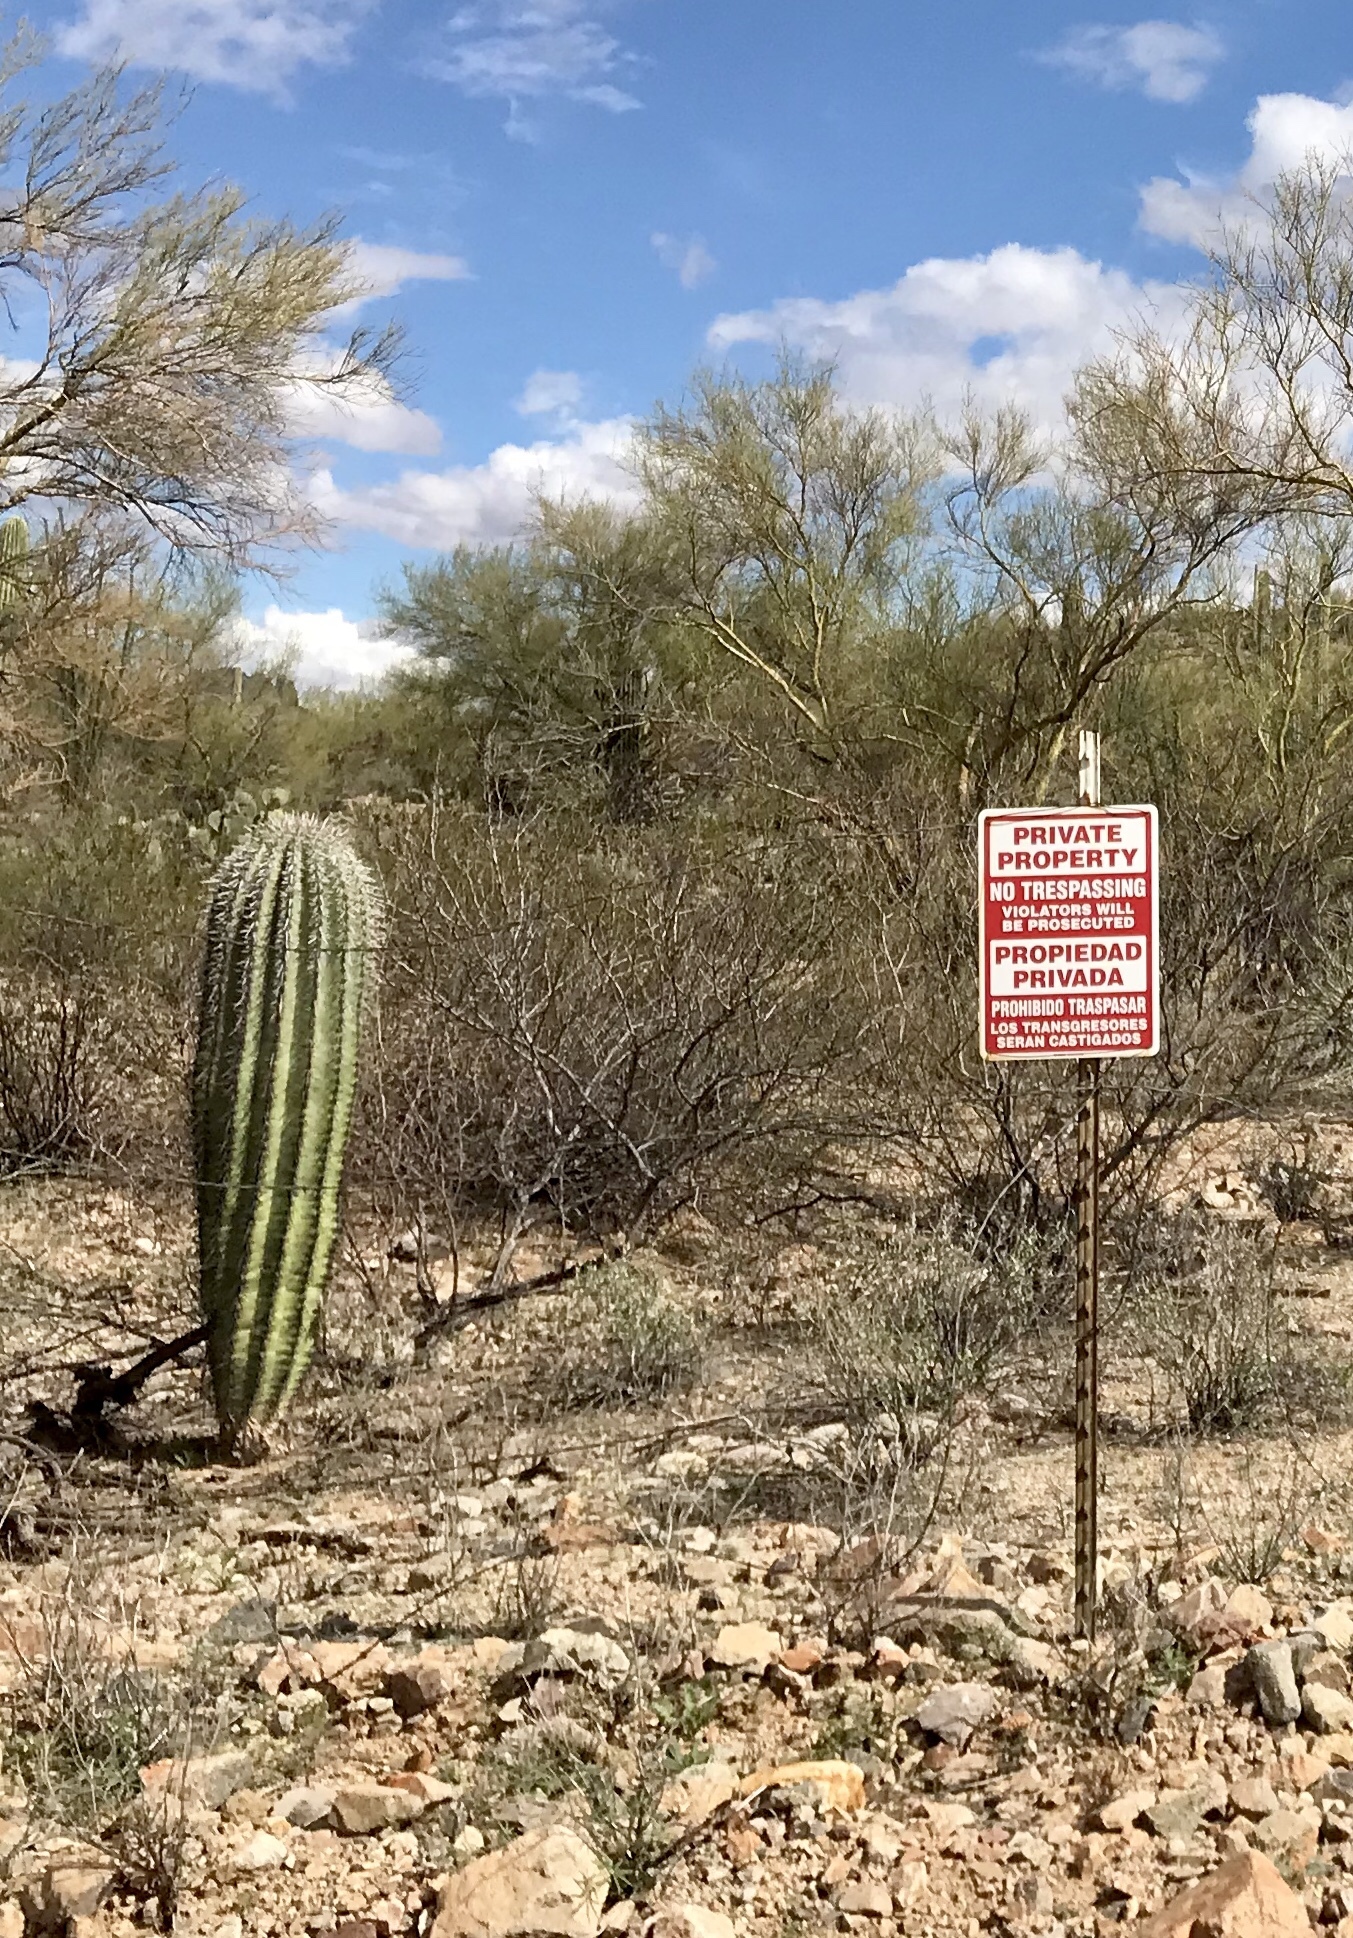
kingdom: Plantae
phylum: Tracheophyta
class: Magnoliopsida
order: Caryophyllales
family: Cactaceae
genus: Carnegiea
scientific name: Carnegiea gigantea
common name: Saguaro
